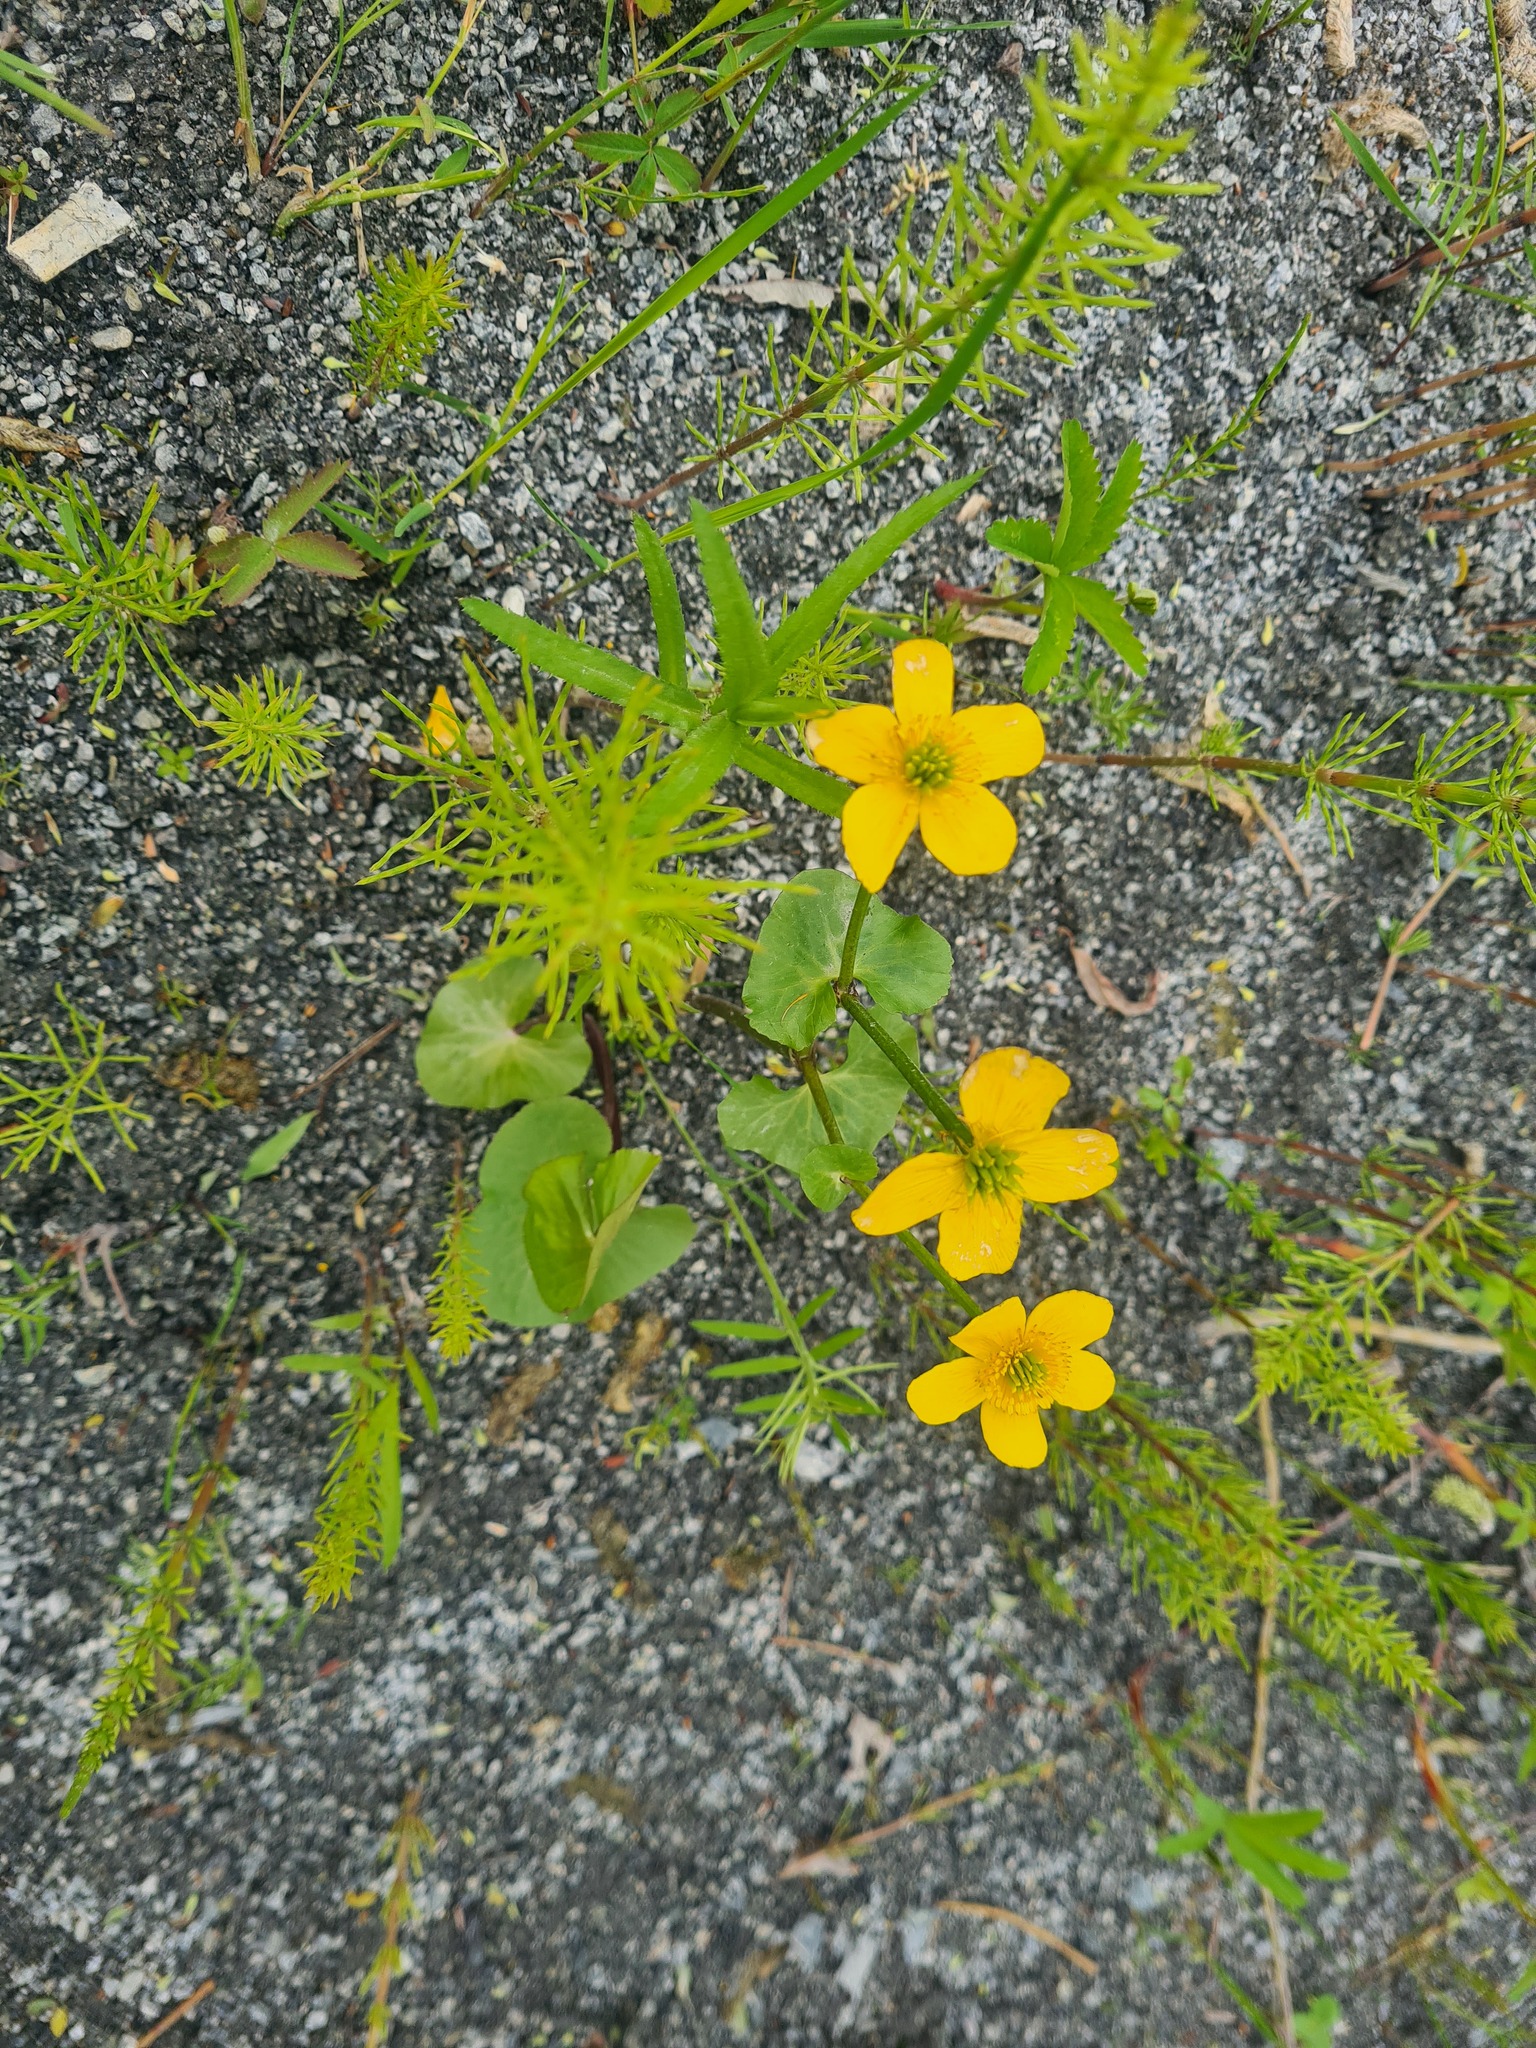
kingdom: Plantae
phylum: Tracheophyta
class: Magnoliopsida
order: Ranunculales
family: Ranunculaceae
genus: Caltha
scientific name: Caltha palustris
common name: Marsh marigold
